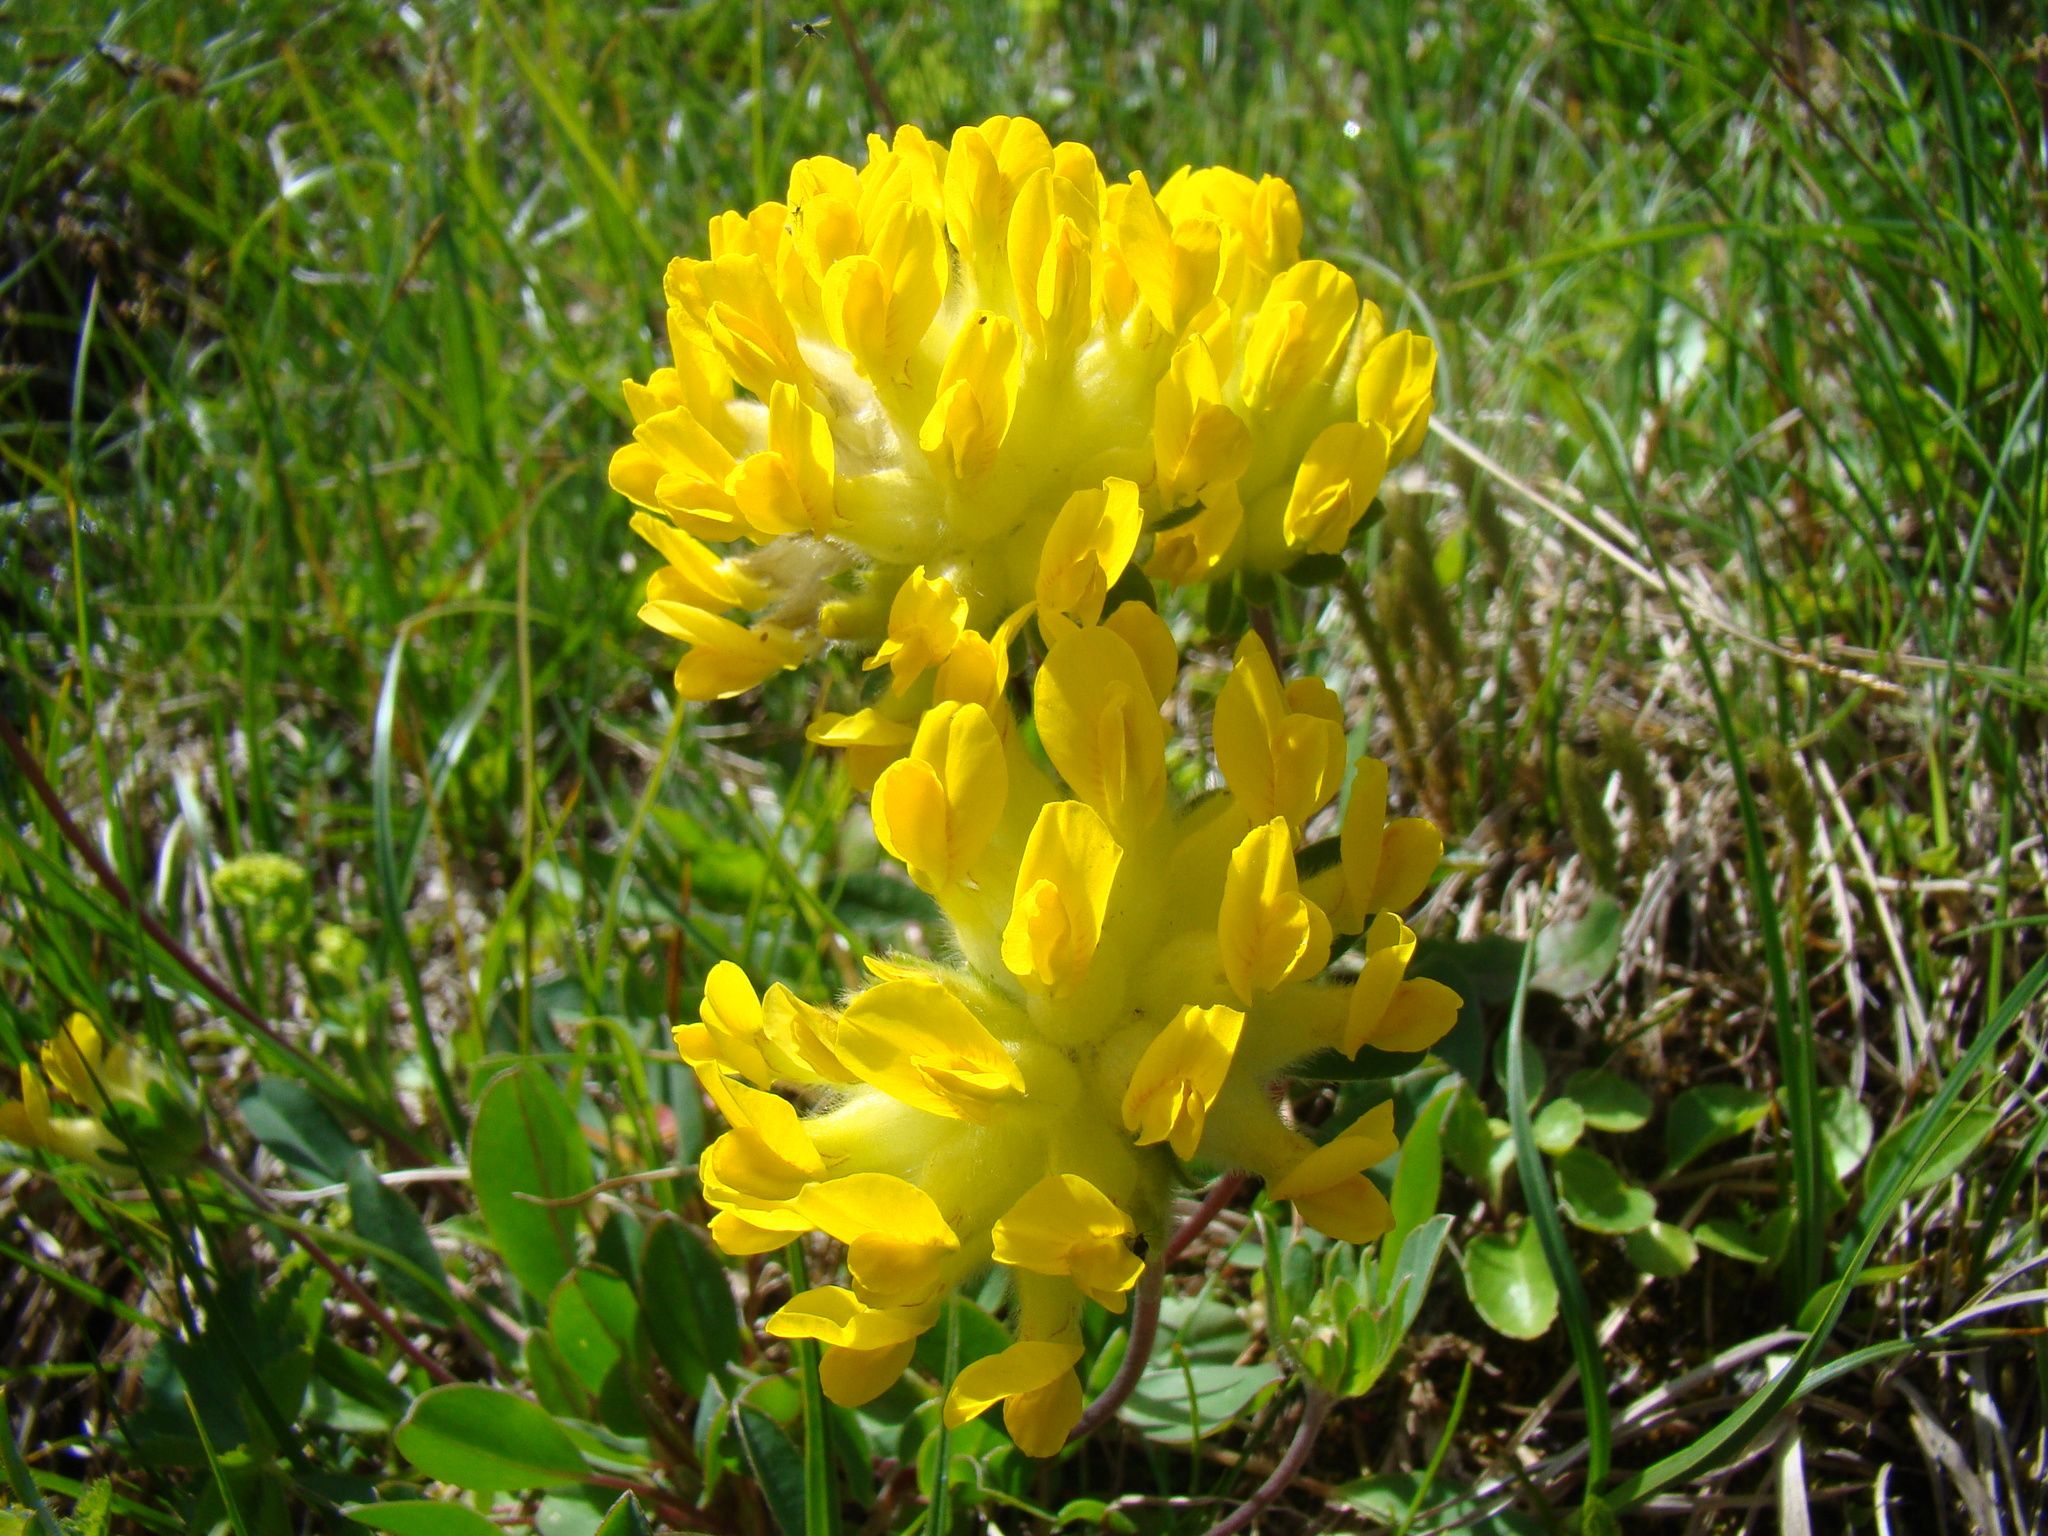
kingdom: Plantae
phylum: Tracheophyta
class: Magnoliopsida
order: Fabales
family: Fabaceae
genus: Anthyllis
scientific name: Anthyllis vulneraria
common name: Kidney vetch
